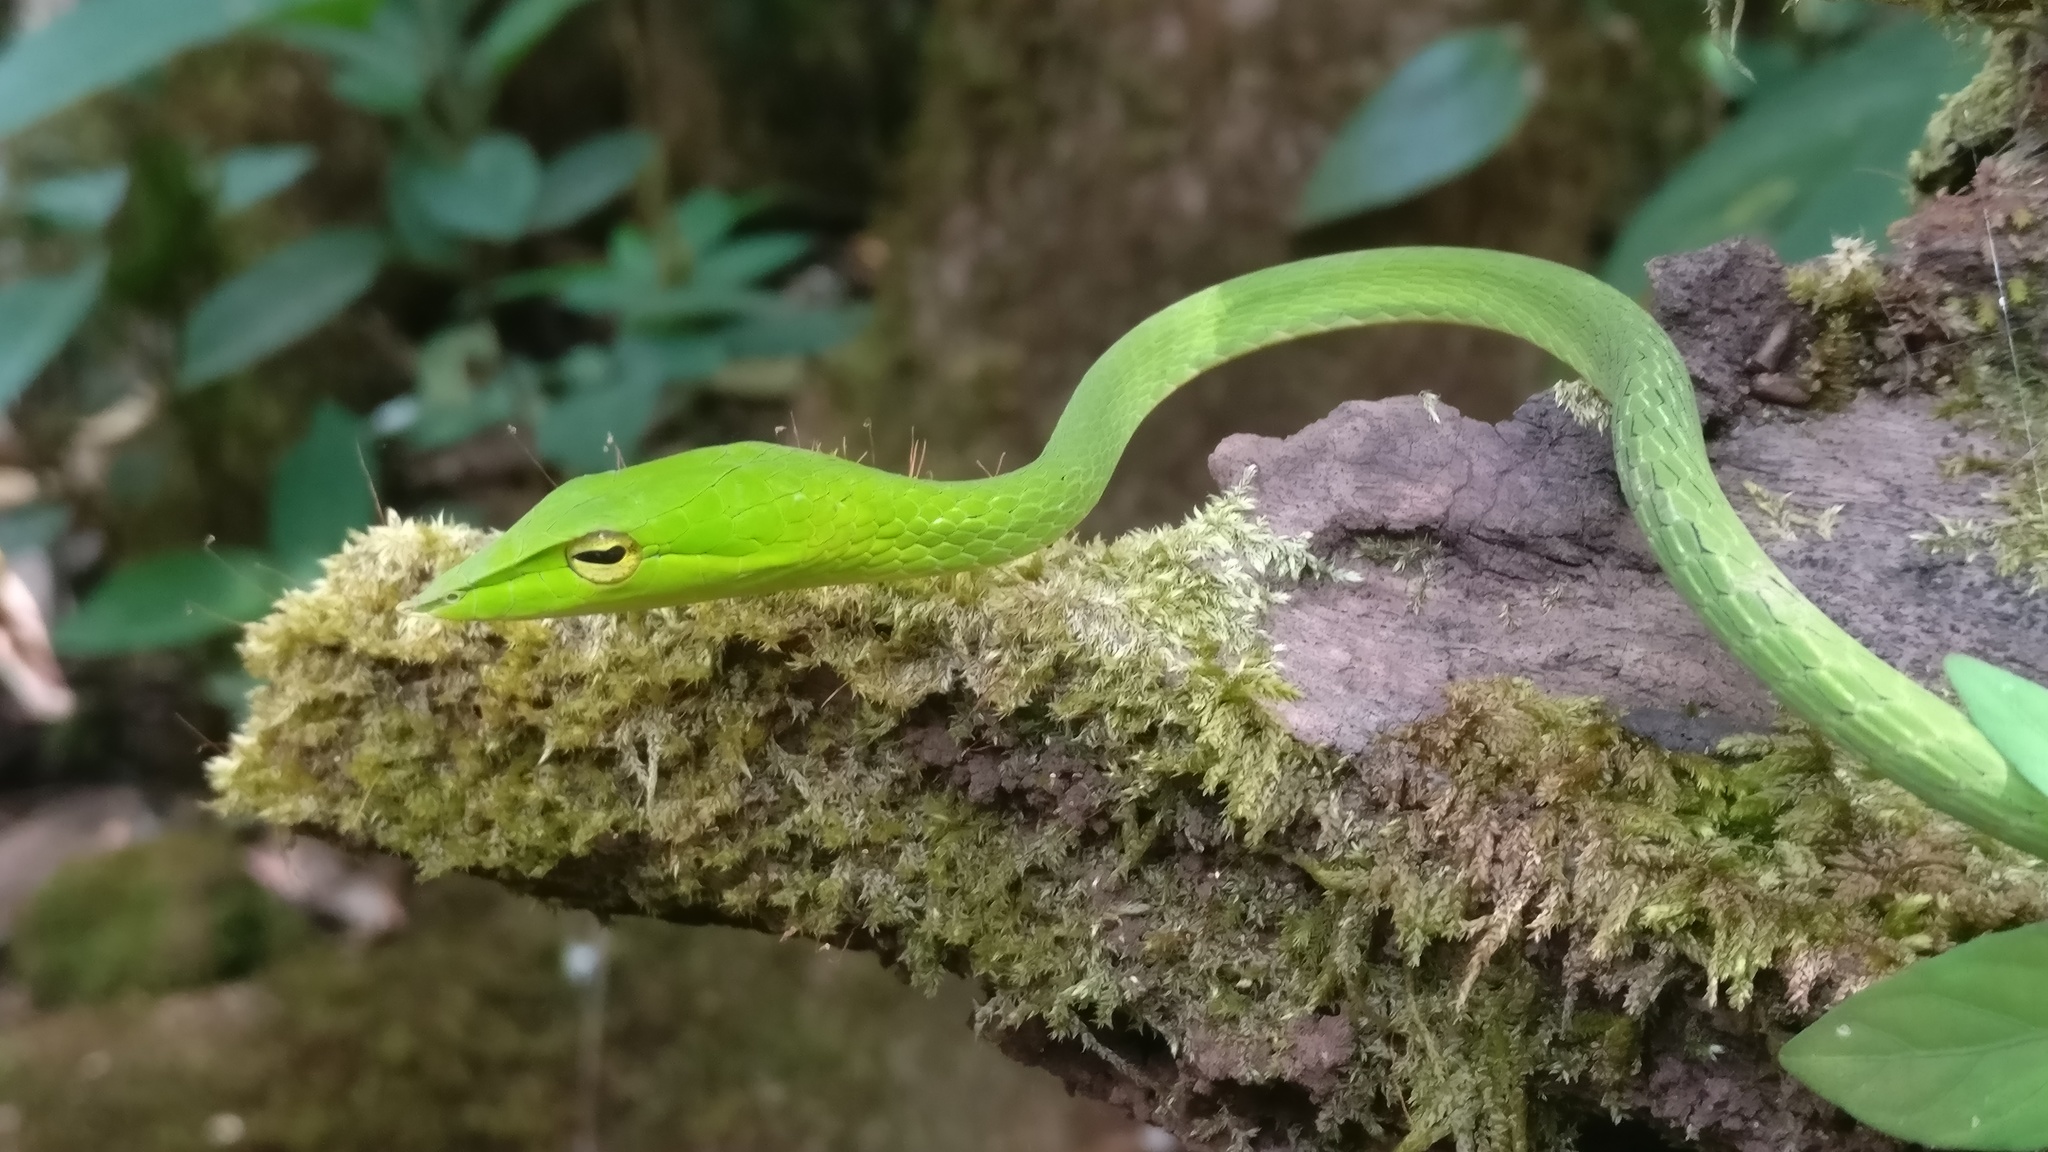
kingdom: Animalia
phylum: Chordata
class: Squamata
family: Colubridae
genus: Ahaetulla
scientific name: Ahaetulla borealis
